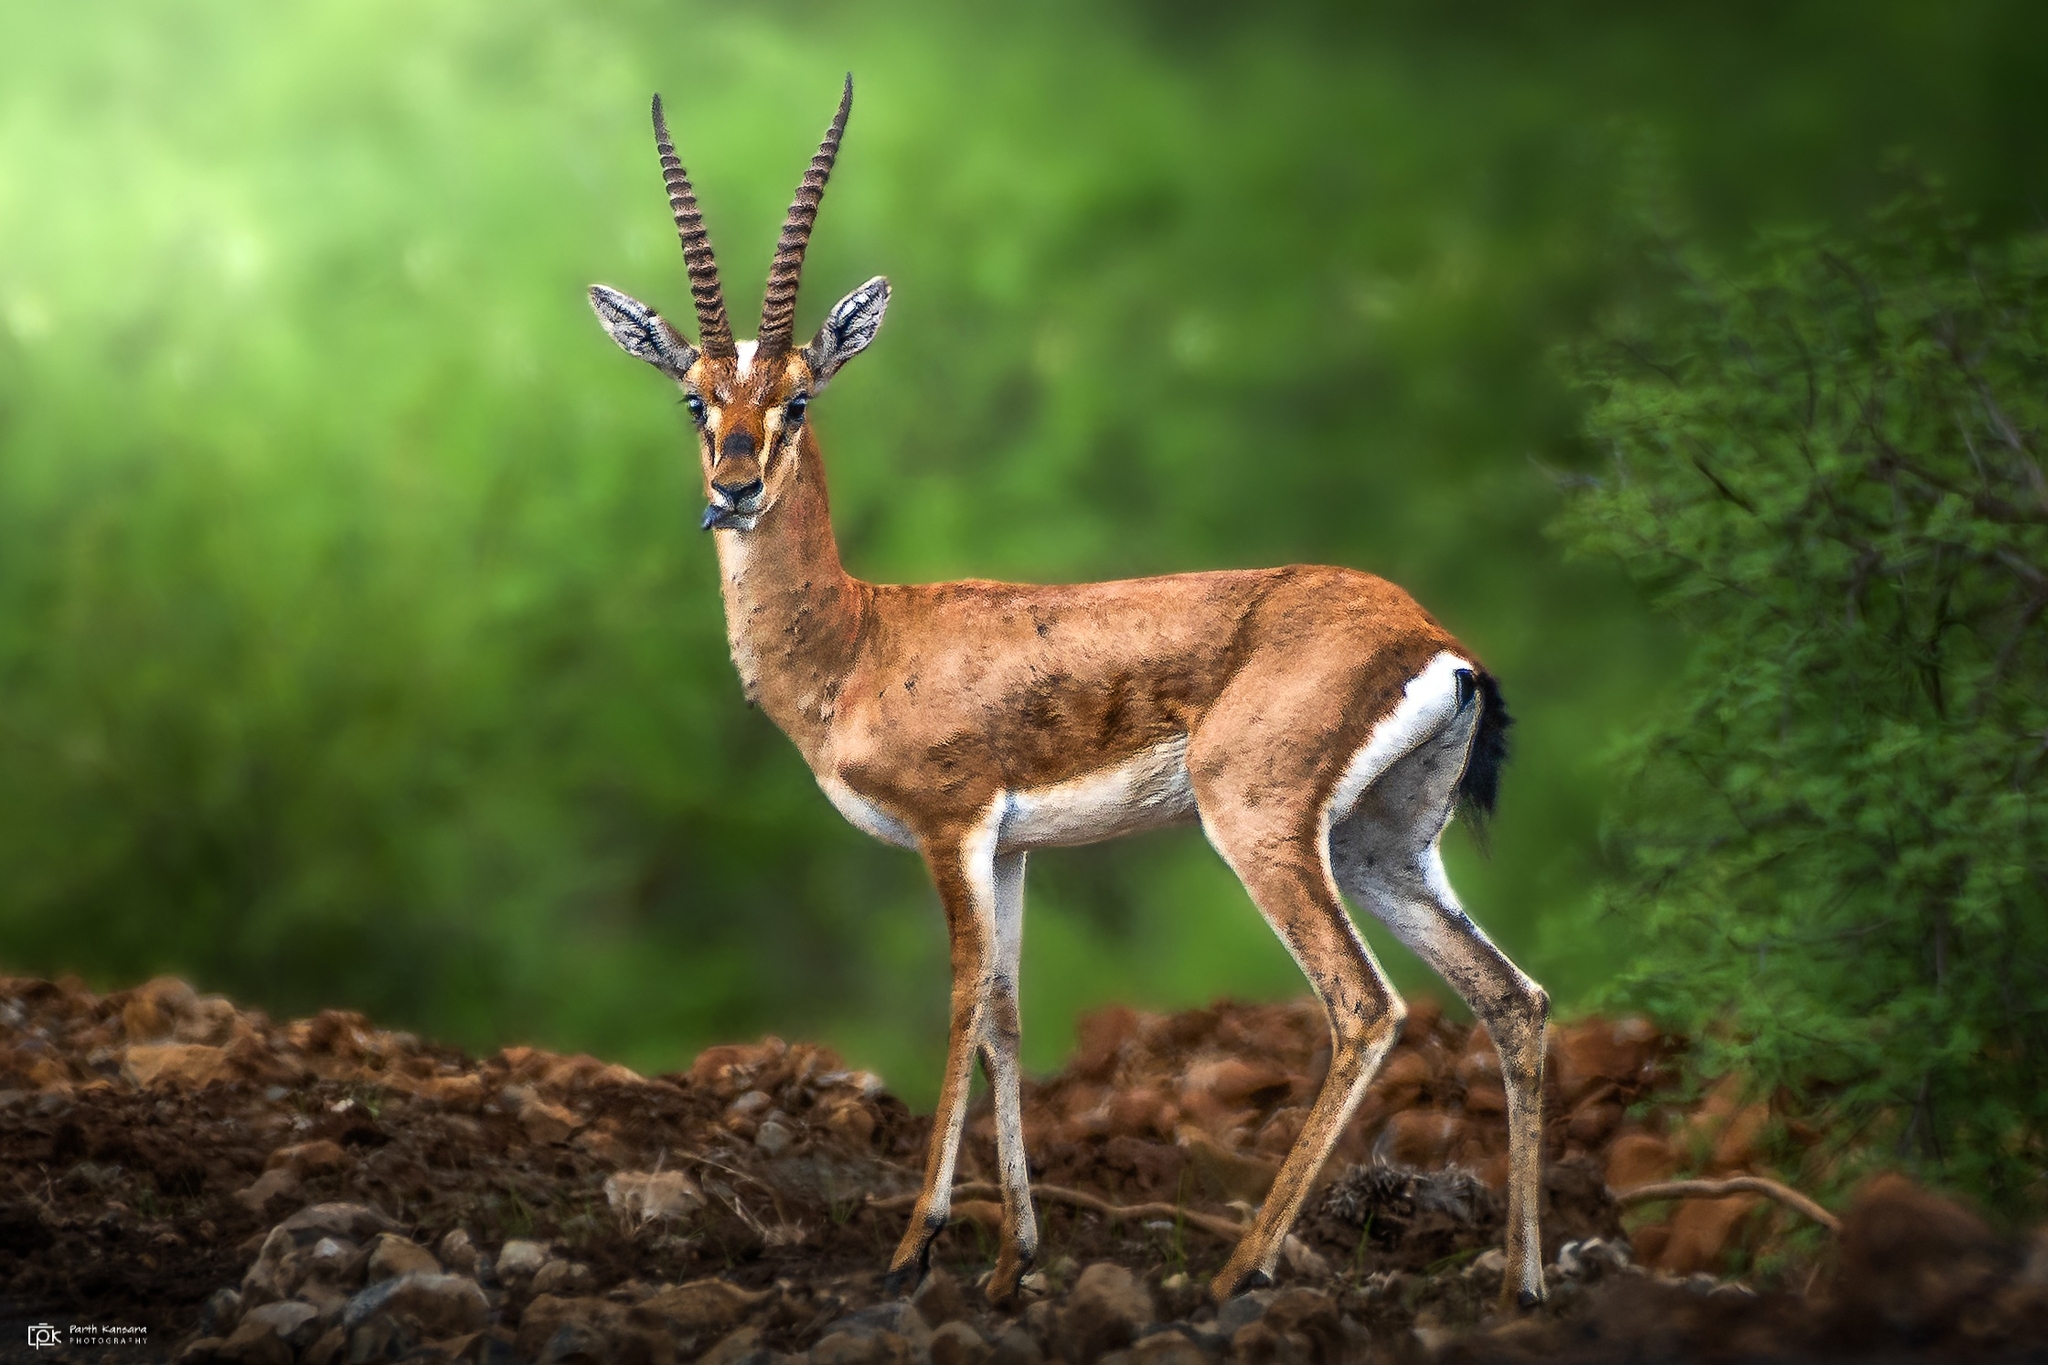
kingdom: Animalia
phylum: Chordata
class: Mammalia
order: Artiodactyla
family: Bovidae
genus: Gazella
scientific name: Gazella bennettii
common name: Indian gazelle
